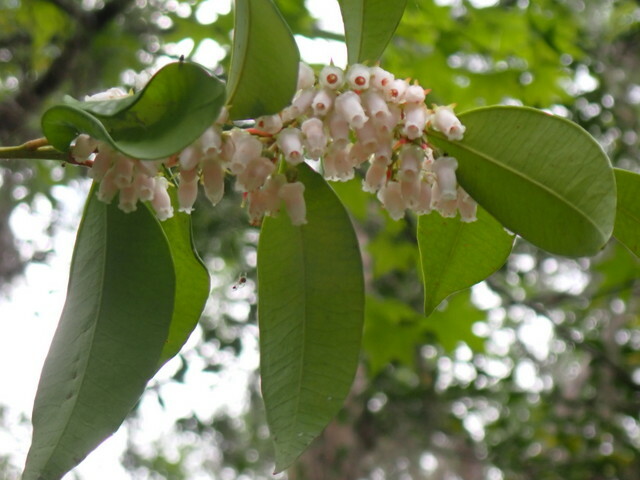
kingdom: Plantae
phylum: Tracheophyta
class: Magnoliopsida
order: Ericales
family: Ericaceae
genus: Lyonia
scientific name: Lyonia lucida
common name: Fetterbush
